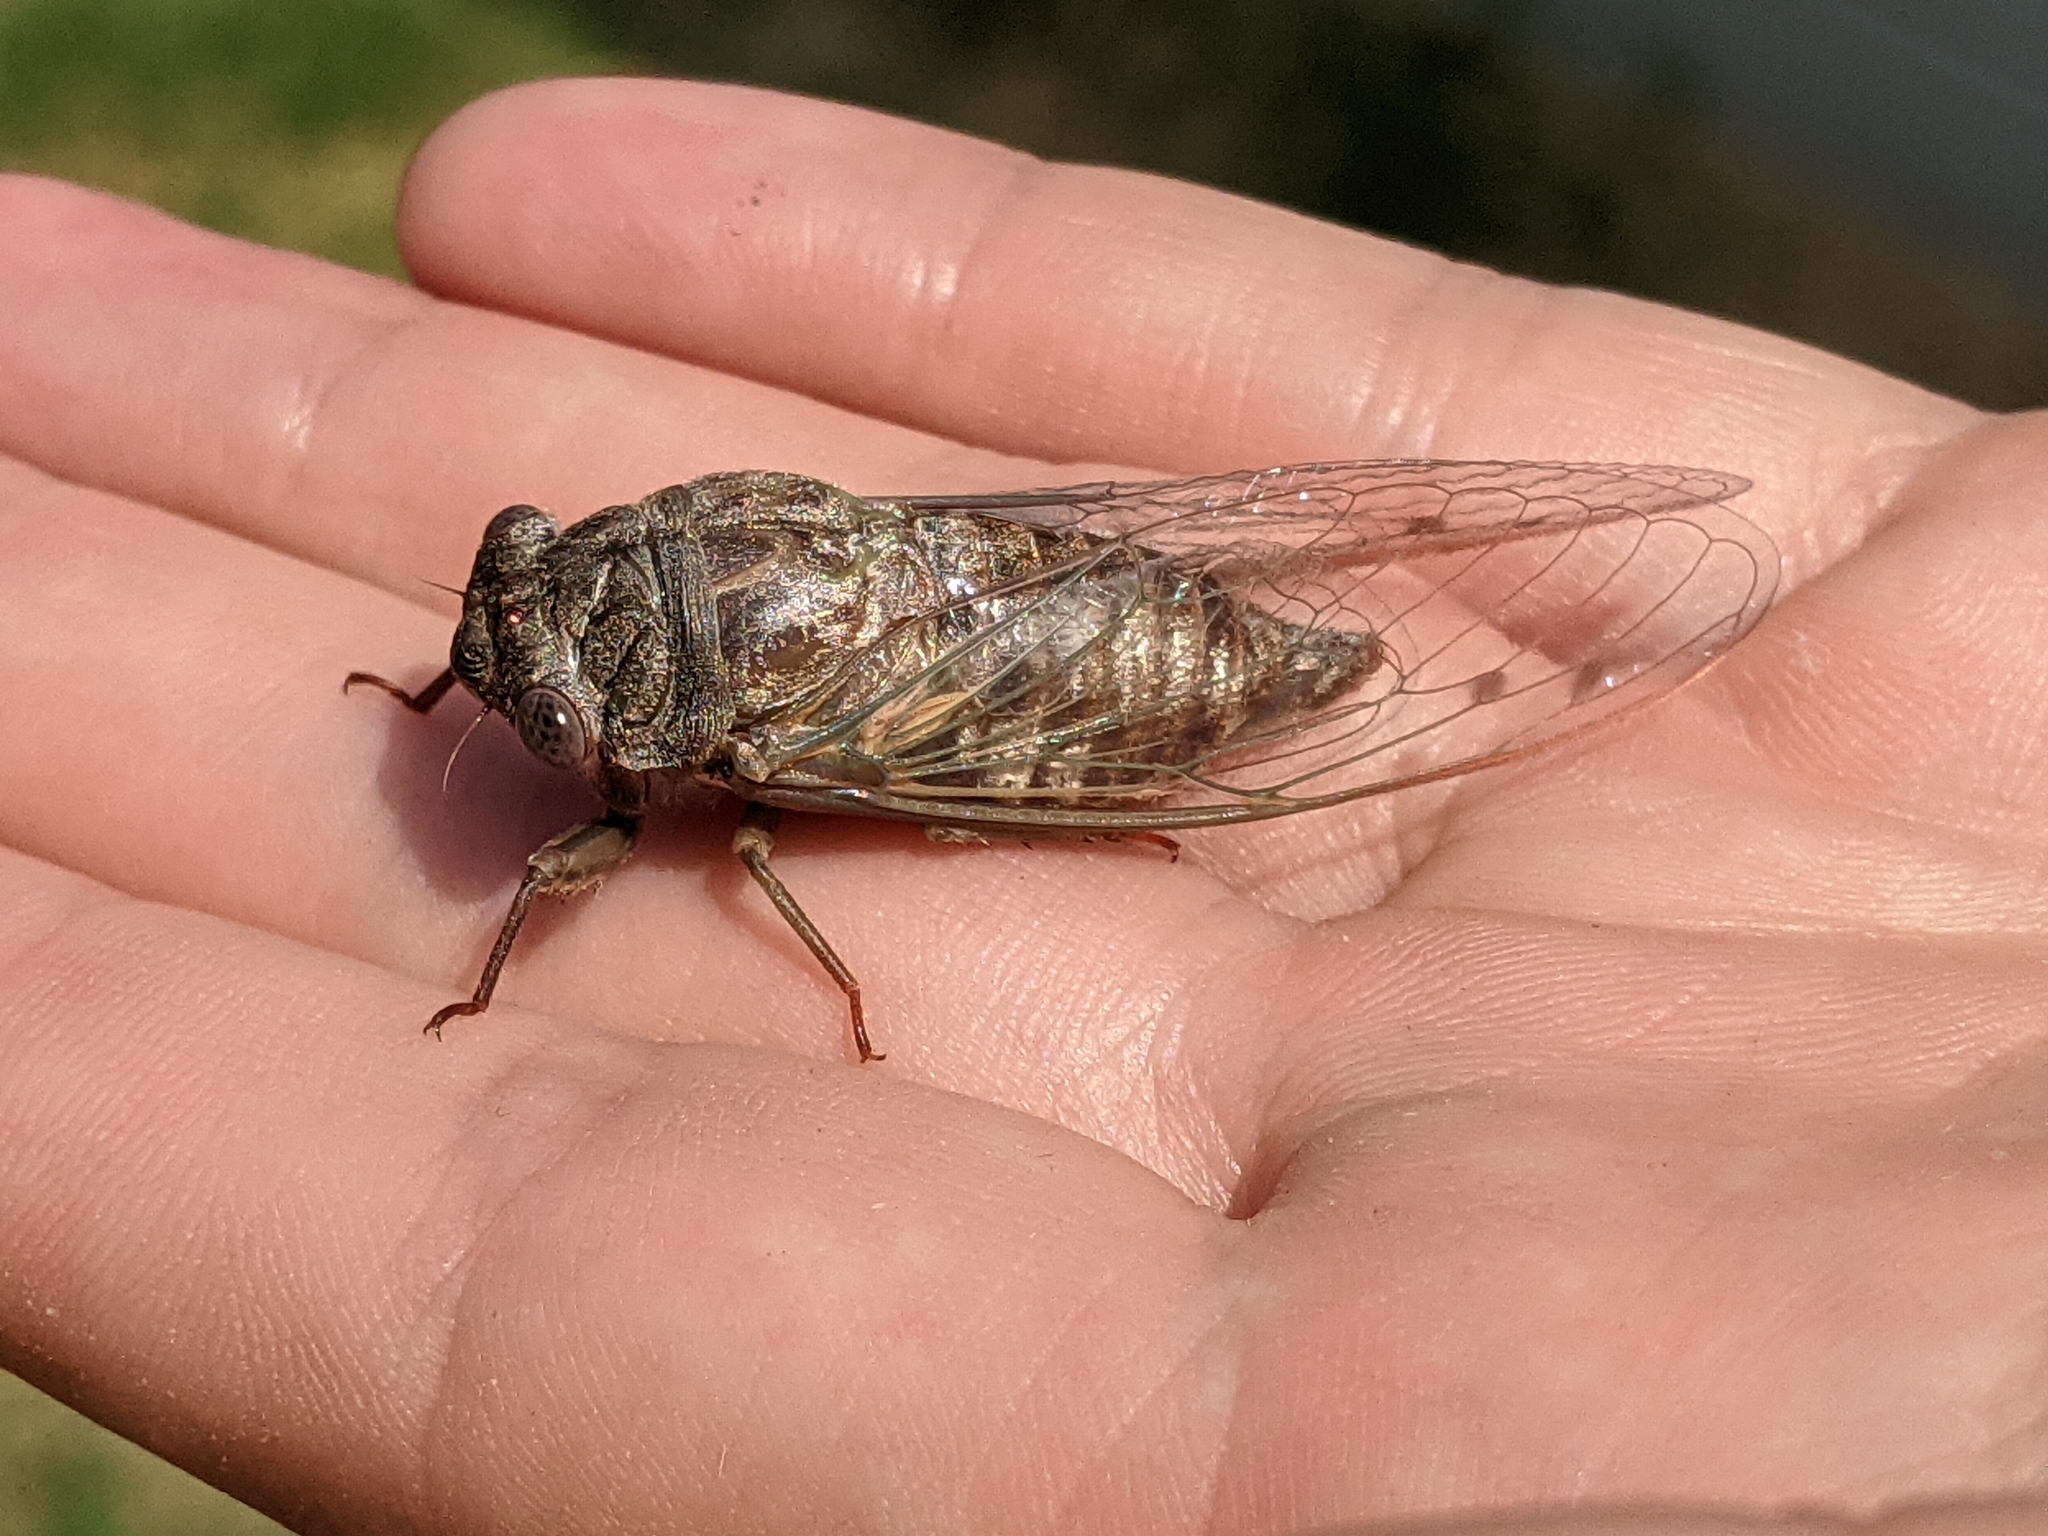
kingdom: Animalia
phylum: Arthropoda
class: Insecta
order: Hemiptera
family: Cicadidae
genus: Hadoa
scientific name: Hadoa texana
